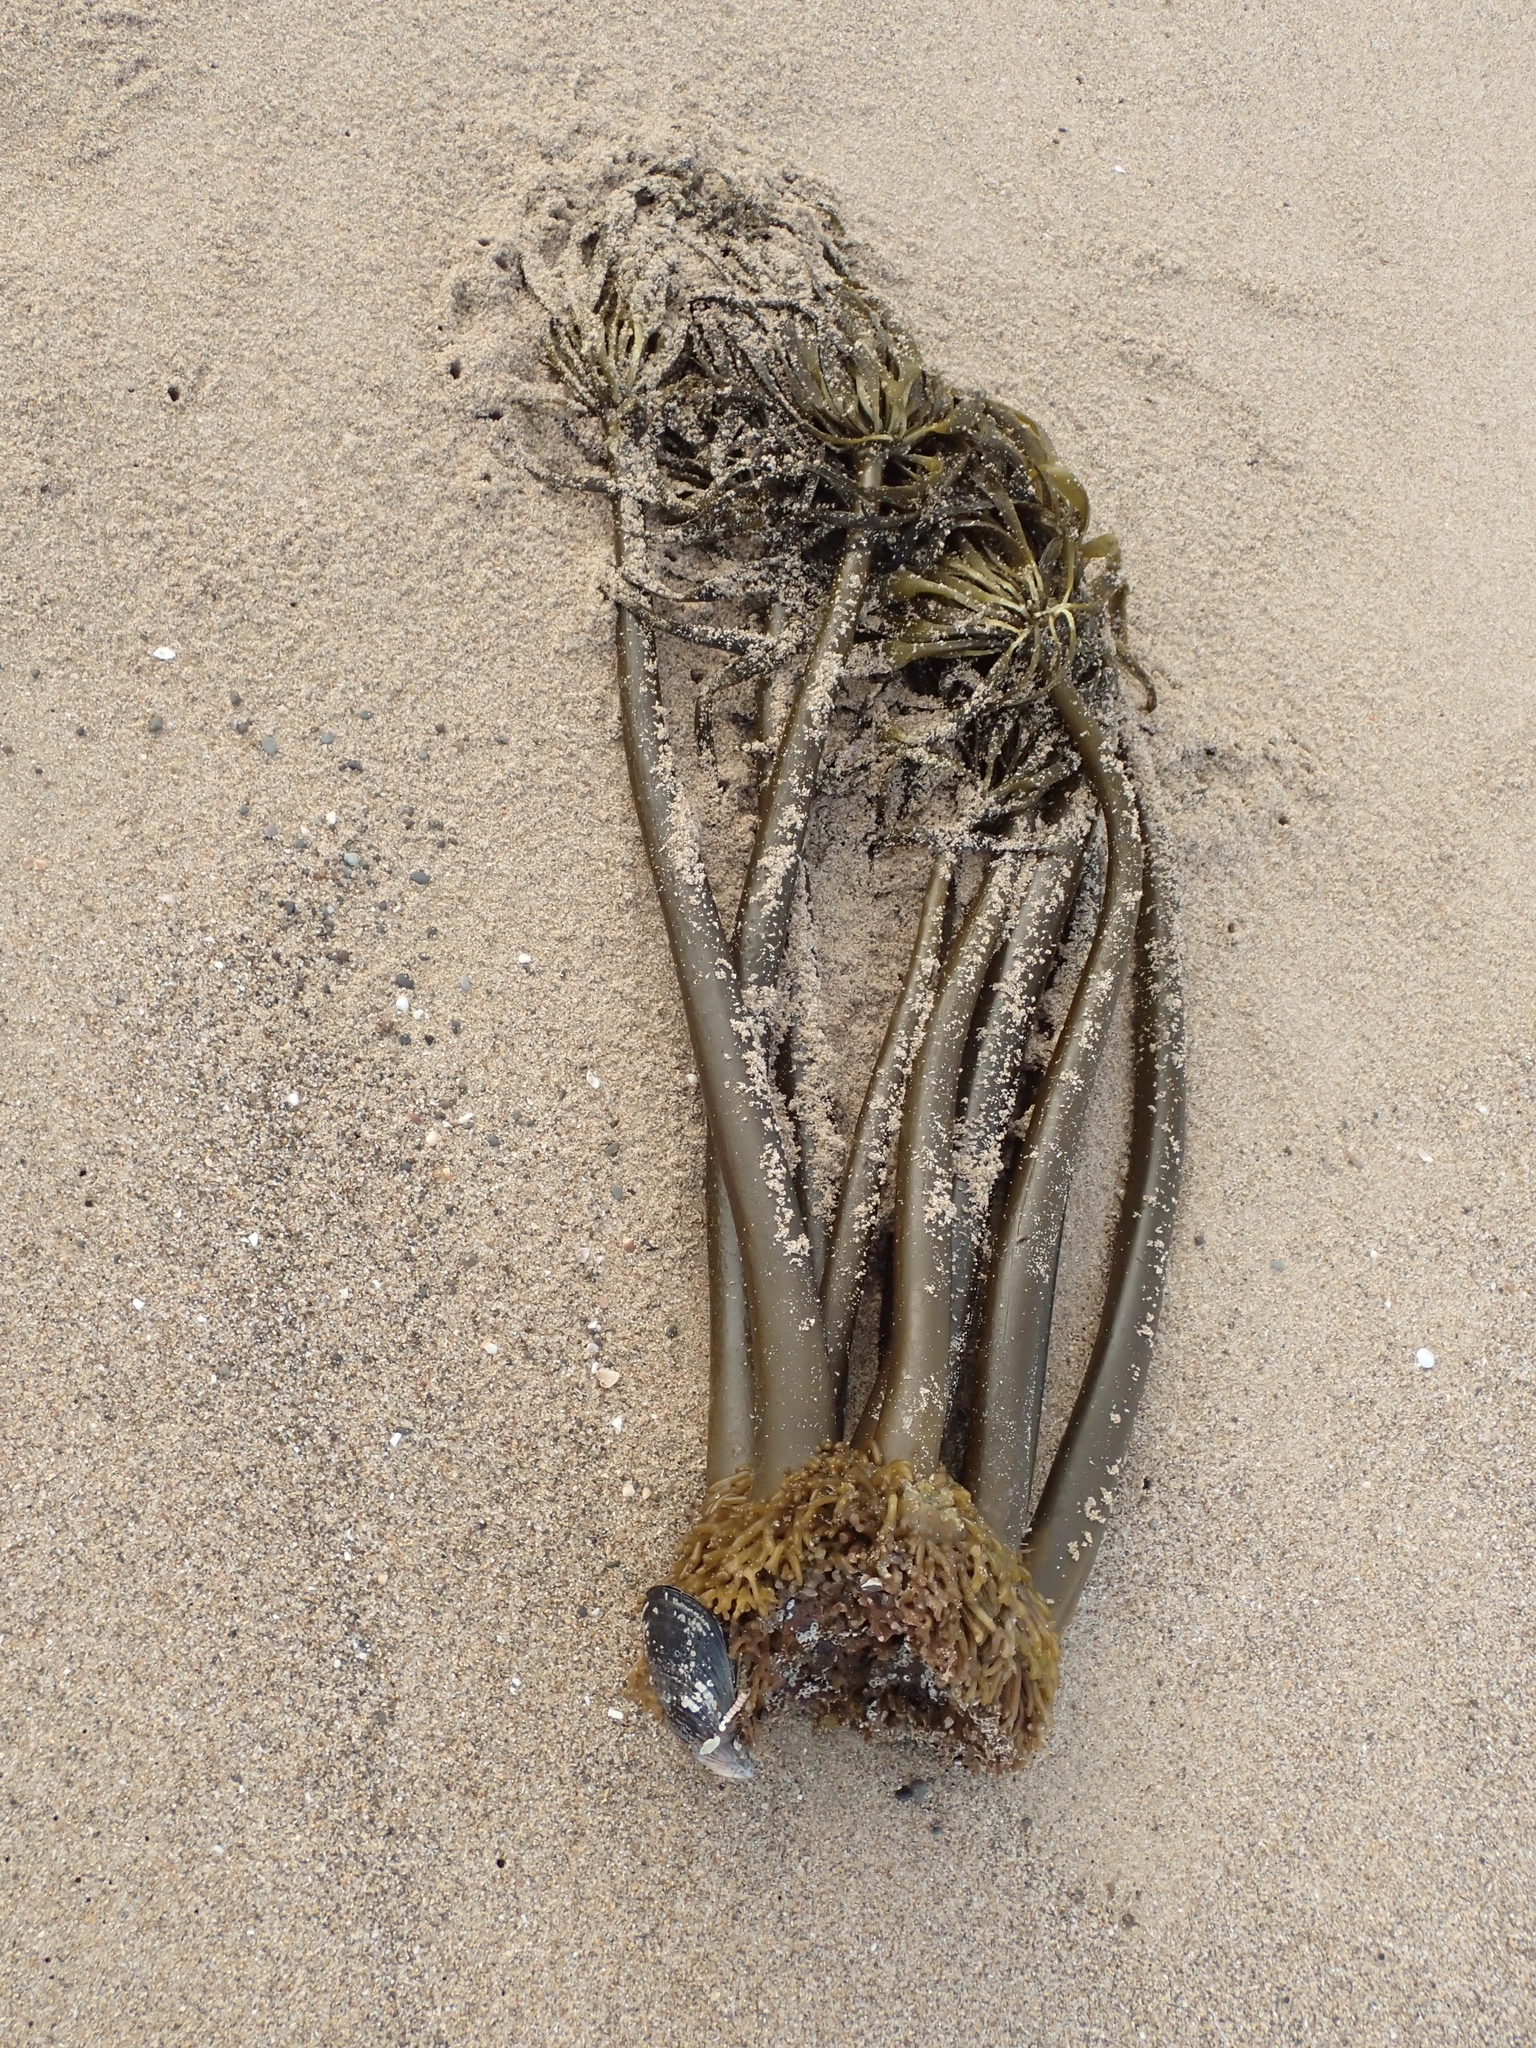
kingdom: Chromista
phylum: Ochrophyta
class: Phaeophyceae
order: Laminariales
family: Laminariaceae
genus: Postelsia
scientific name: Postelsia palmiformis
